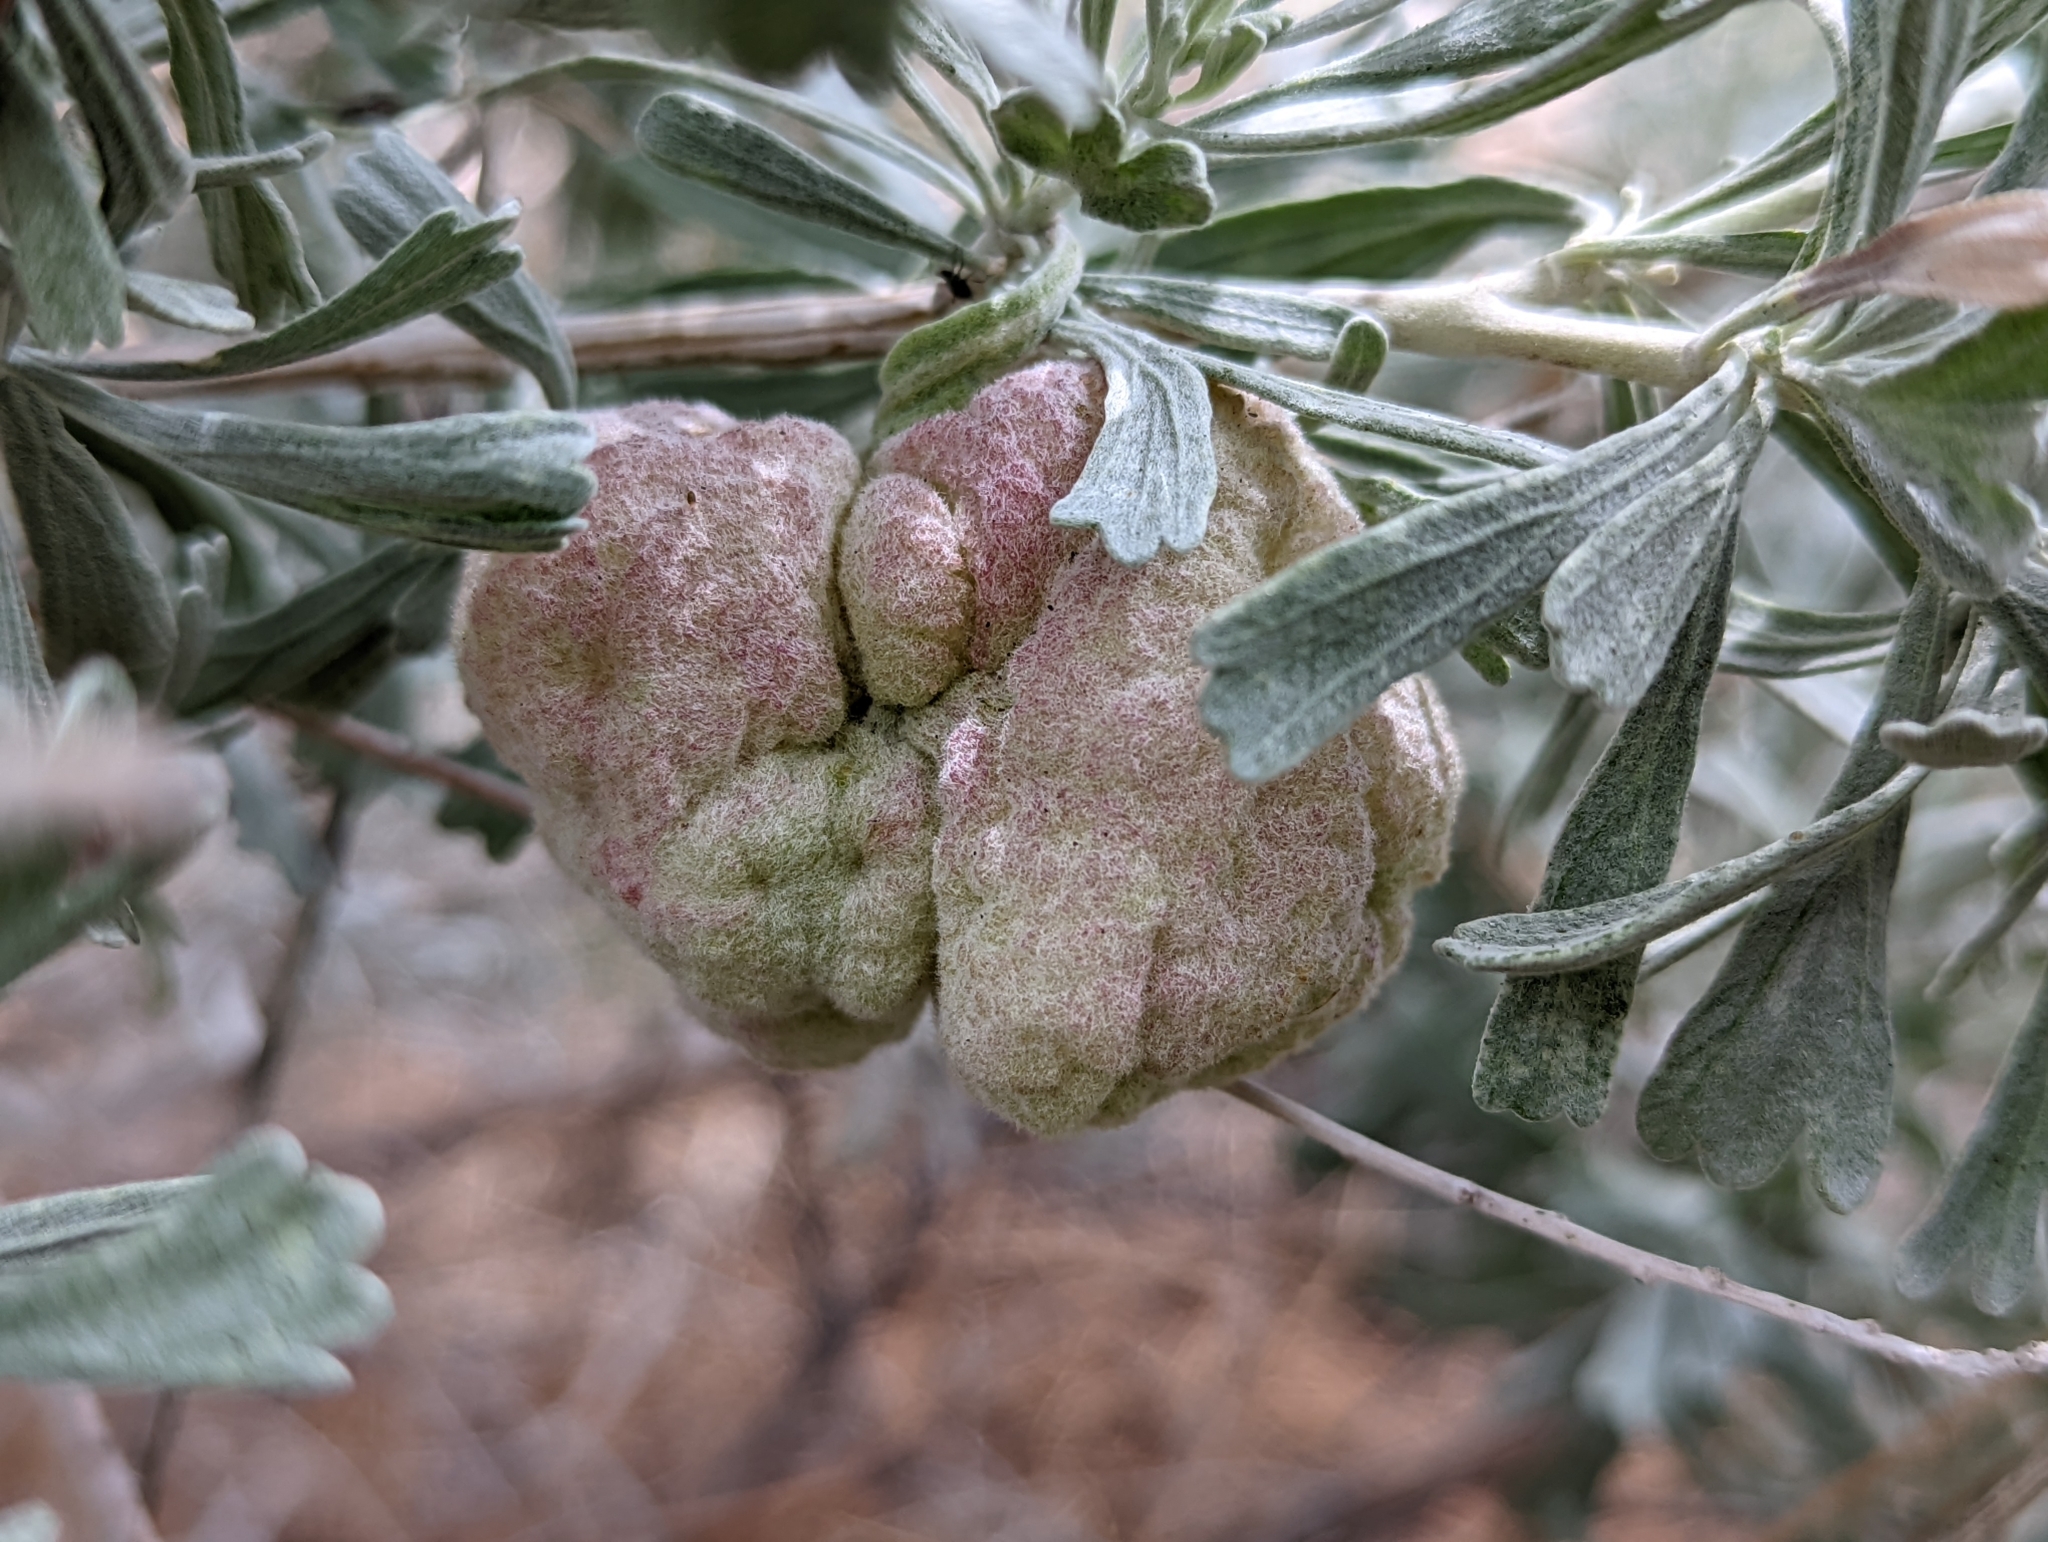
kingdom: Animalia
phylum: Arthropoda
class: Insecta
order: Diptera
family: Cecidomyiidae
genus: Rhopalomyia
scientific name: Rhopalomyia pomum
